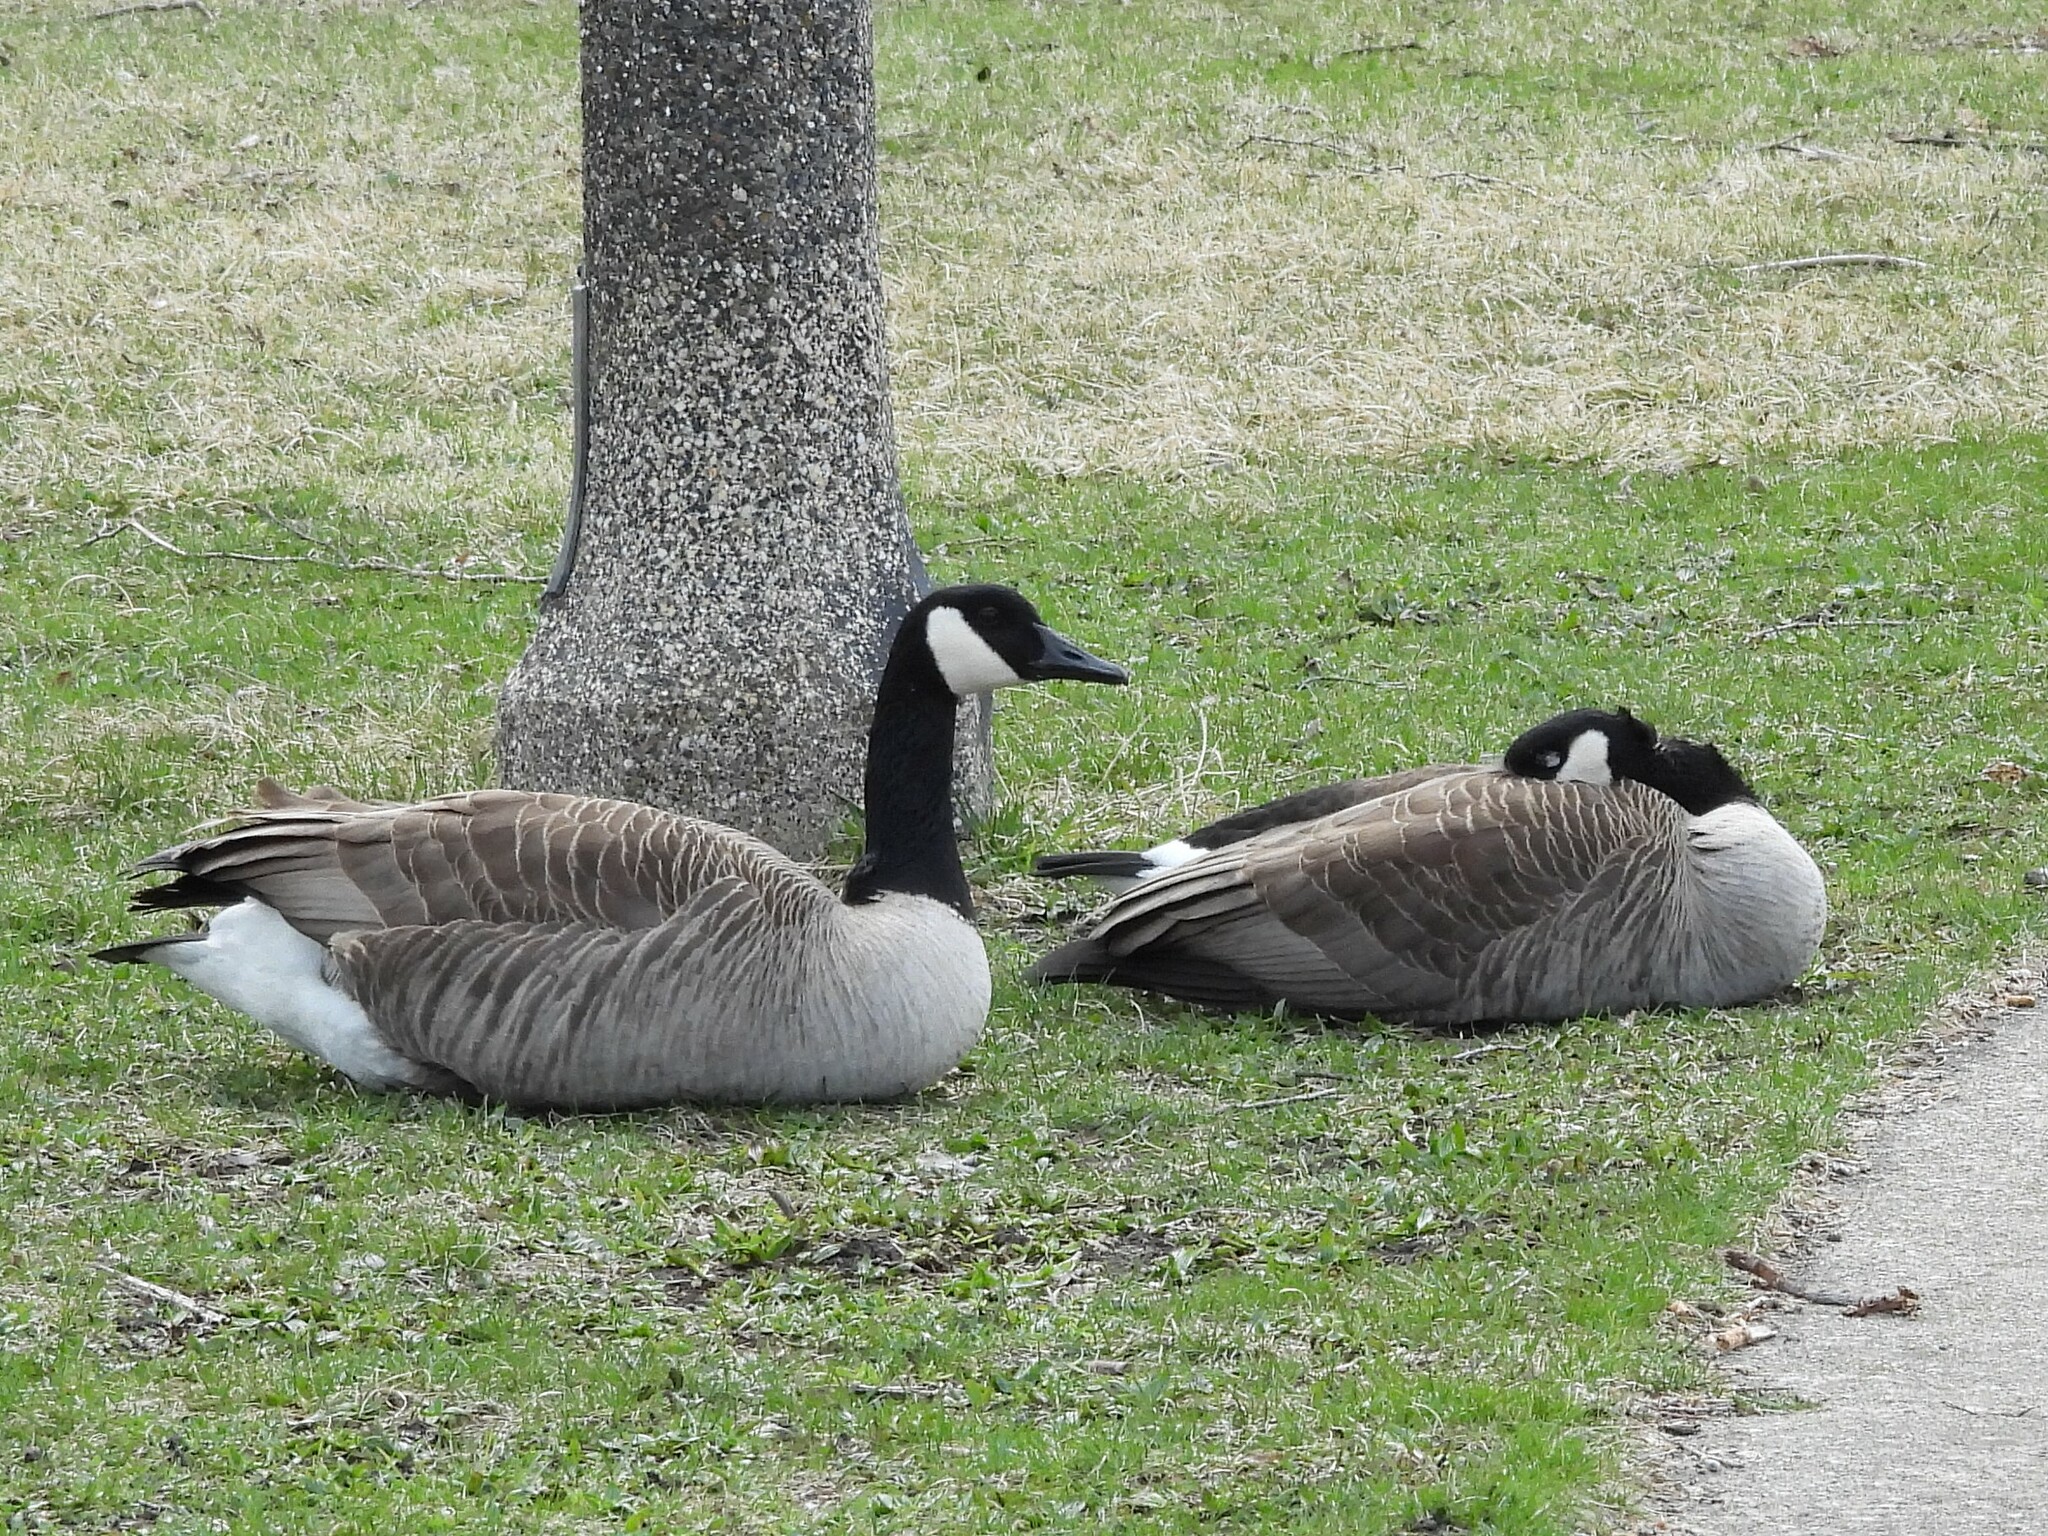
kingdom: Animalia
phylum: Chordata
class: Aves
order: Anseriformes
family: Anatidae
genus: Branta
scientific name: Branta canadensis
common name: Canada goose
